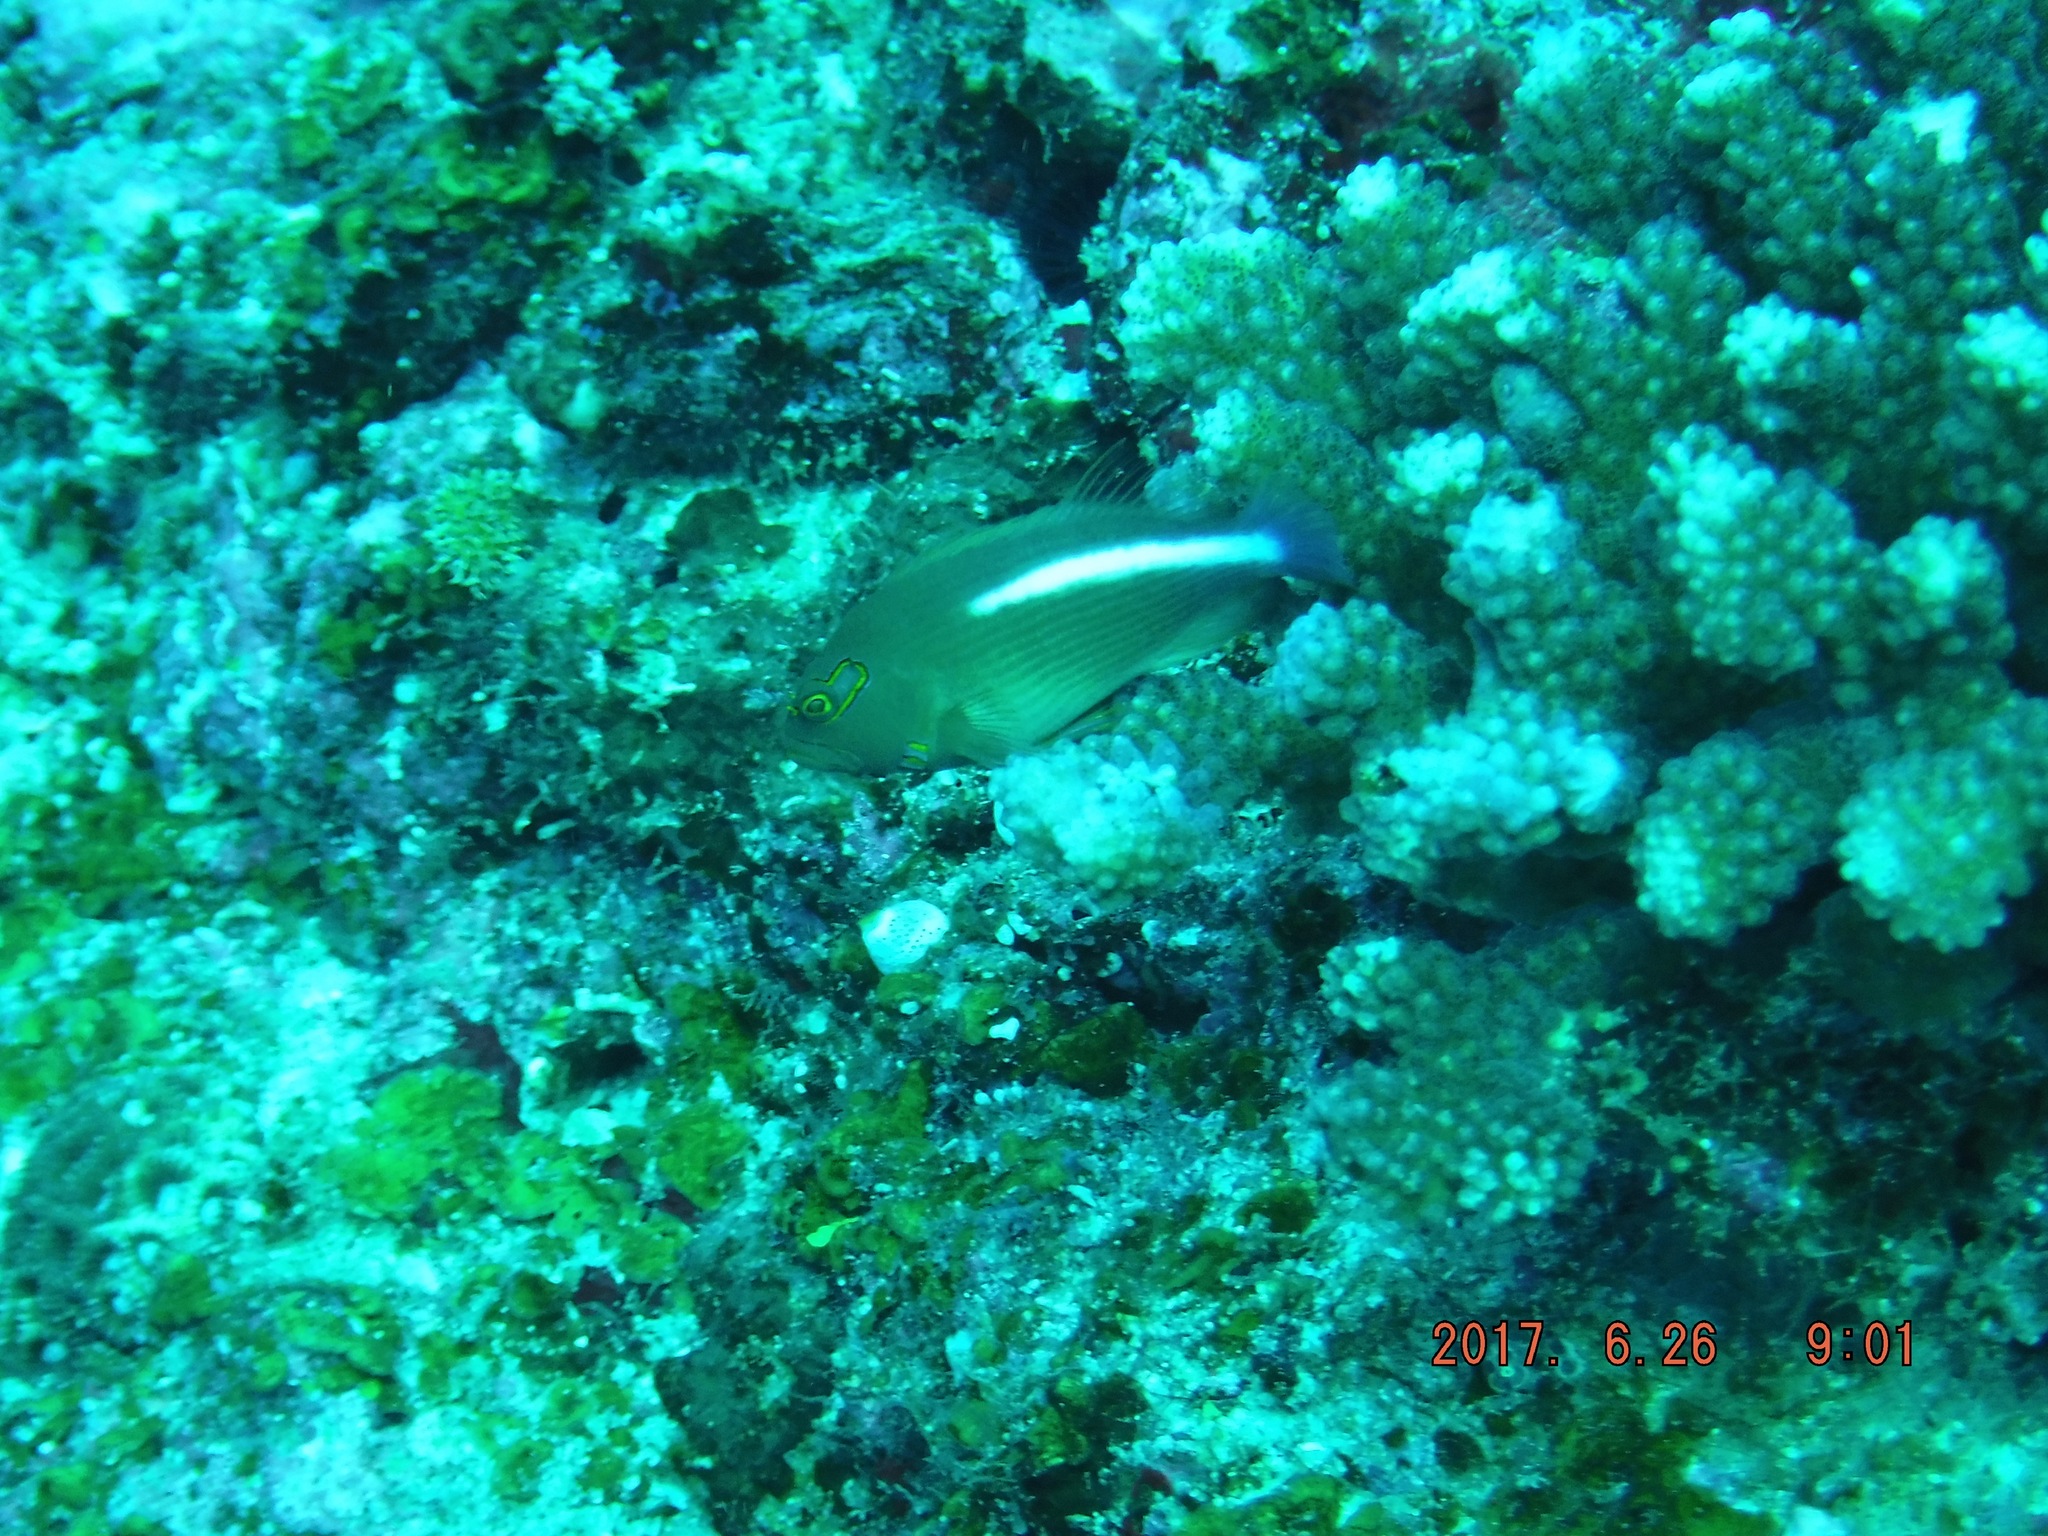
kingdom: Animalia
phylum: Chordata
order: Perciformes
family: Cirrhitidae
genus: Paracirrhites
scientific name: Paracirrhites arcatus
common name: Arc-eye hawkfish
